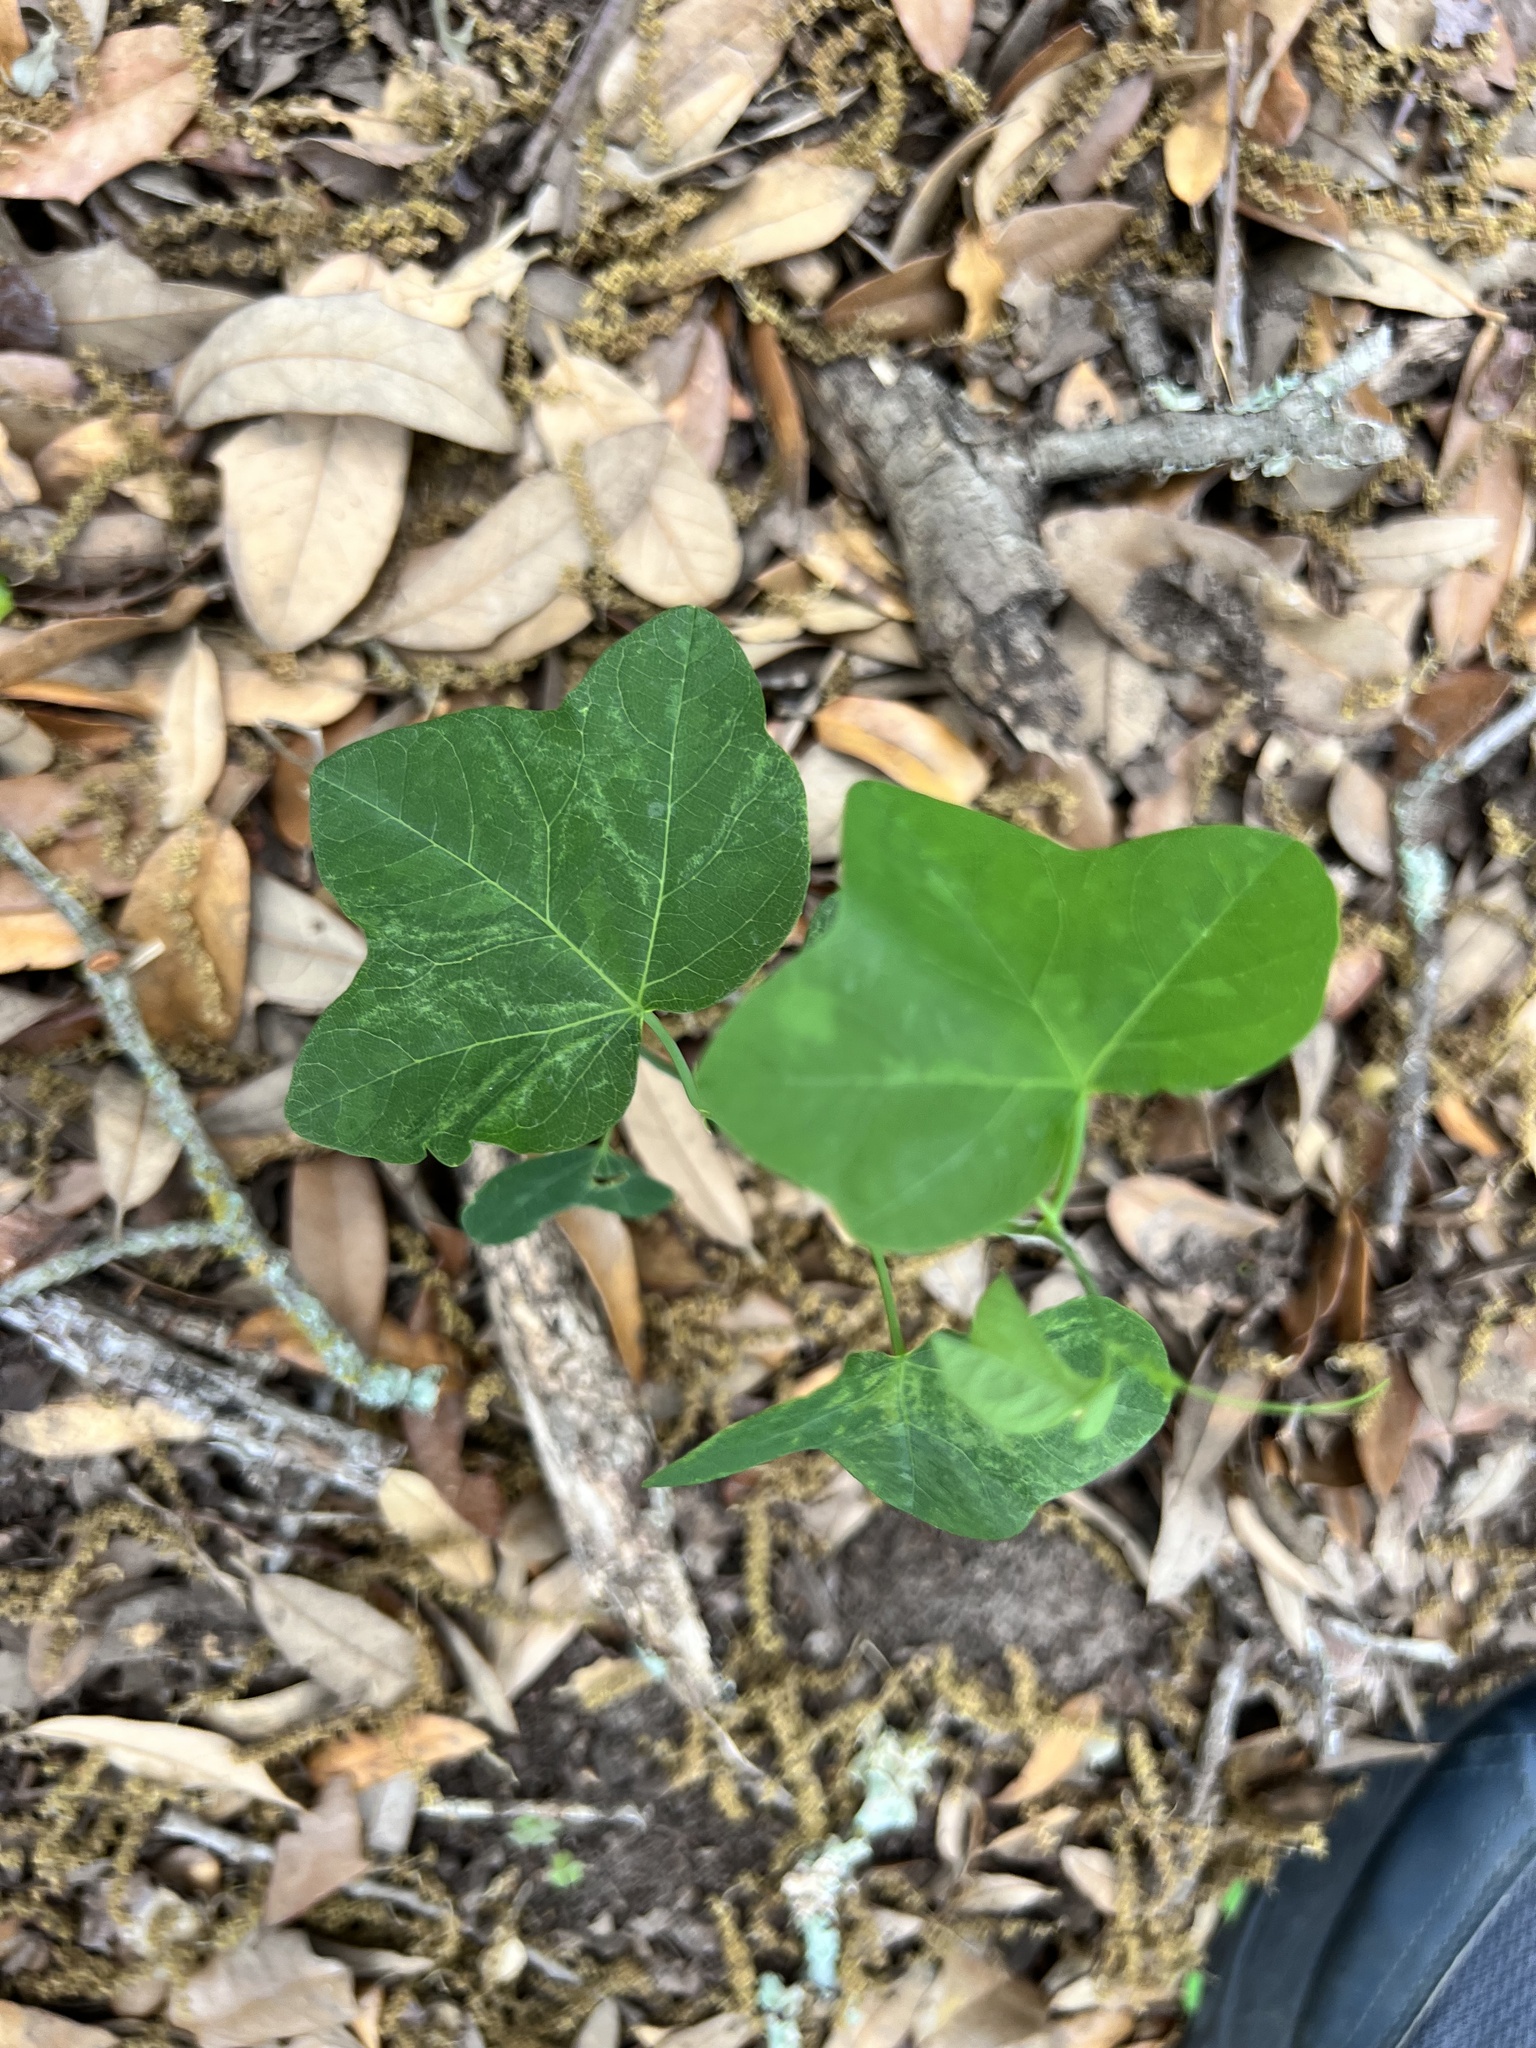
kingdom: Plantae
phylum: Tracheophyta
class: Magnoliopsida
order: Malpighiales
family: Passifloraceae
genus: Passiflora
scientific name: Passiflora lutea
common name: Yellow passionflower
